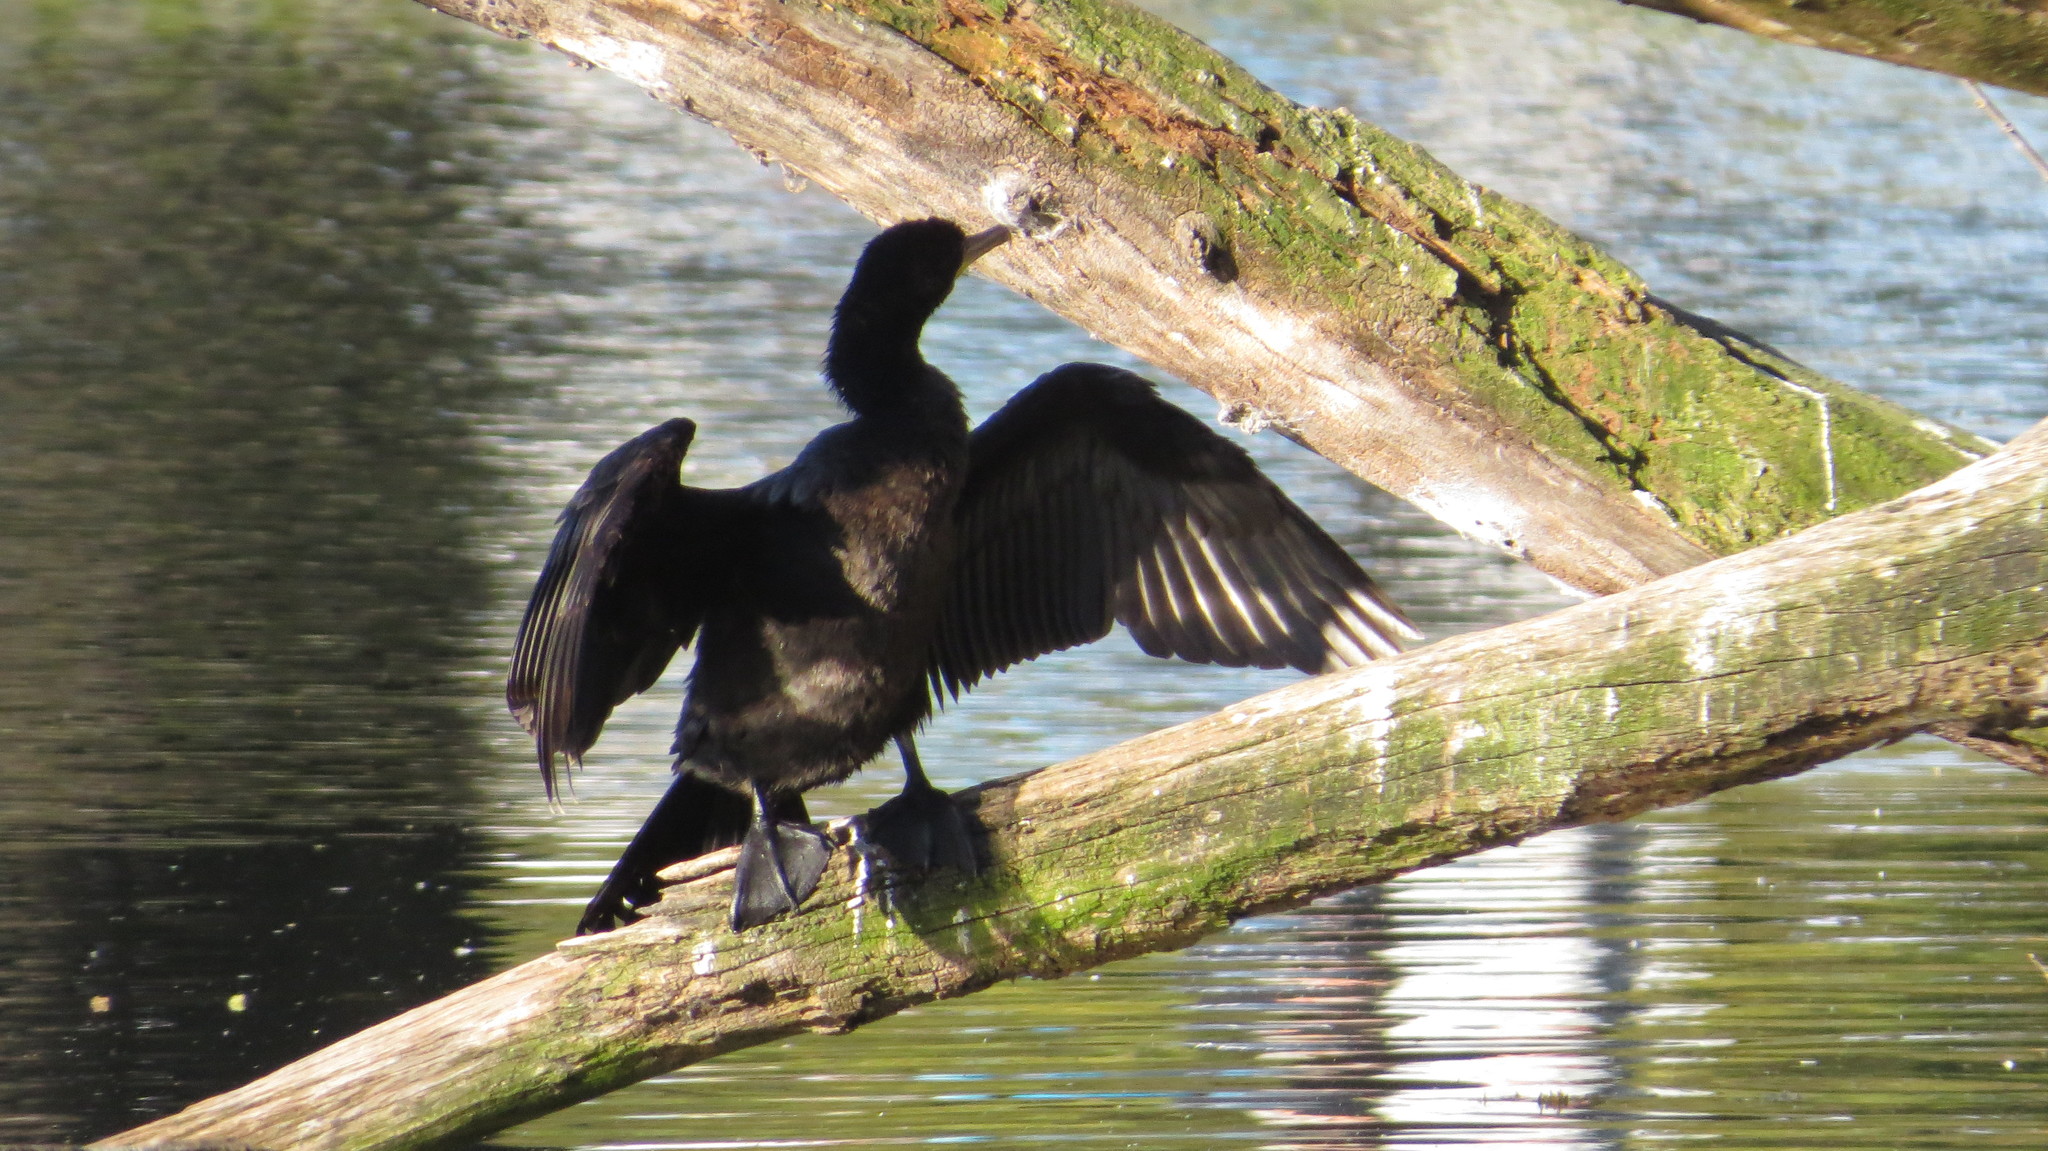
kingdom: Animalia
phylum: Chordata
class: Aves
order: Suliformes
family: Phalacrocoracidae
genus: Phalacrocorax
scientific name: Phalacrocorax brasilianus
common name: Neotropic cormorant
